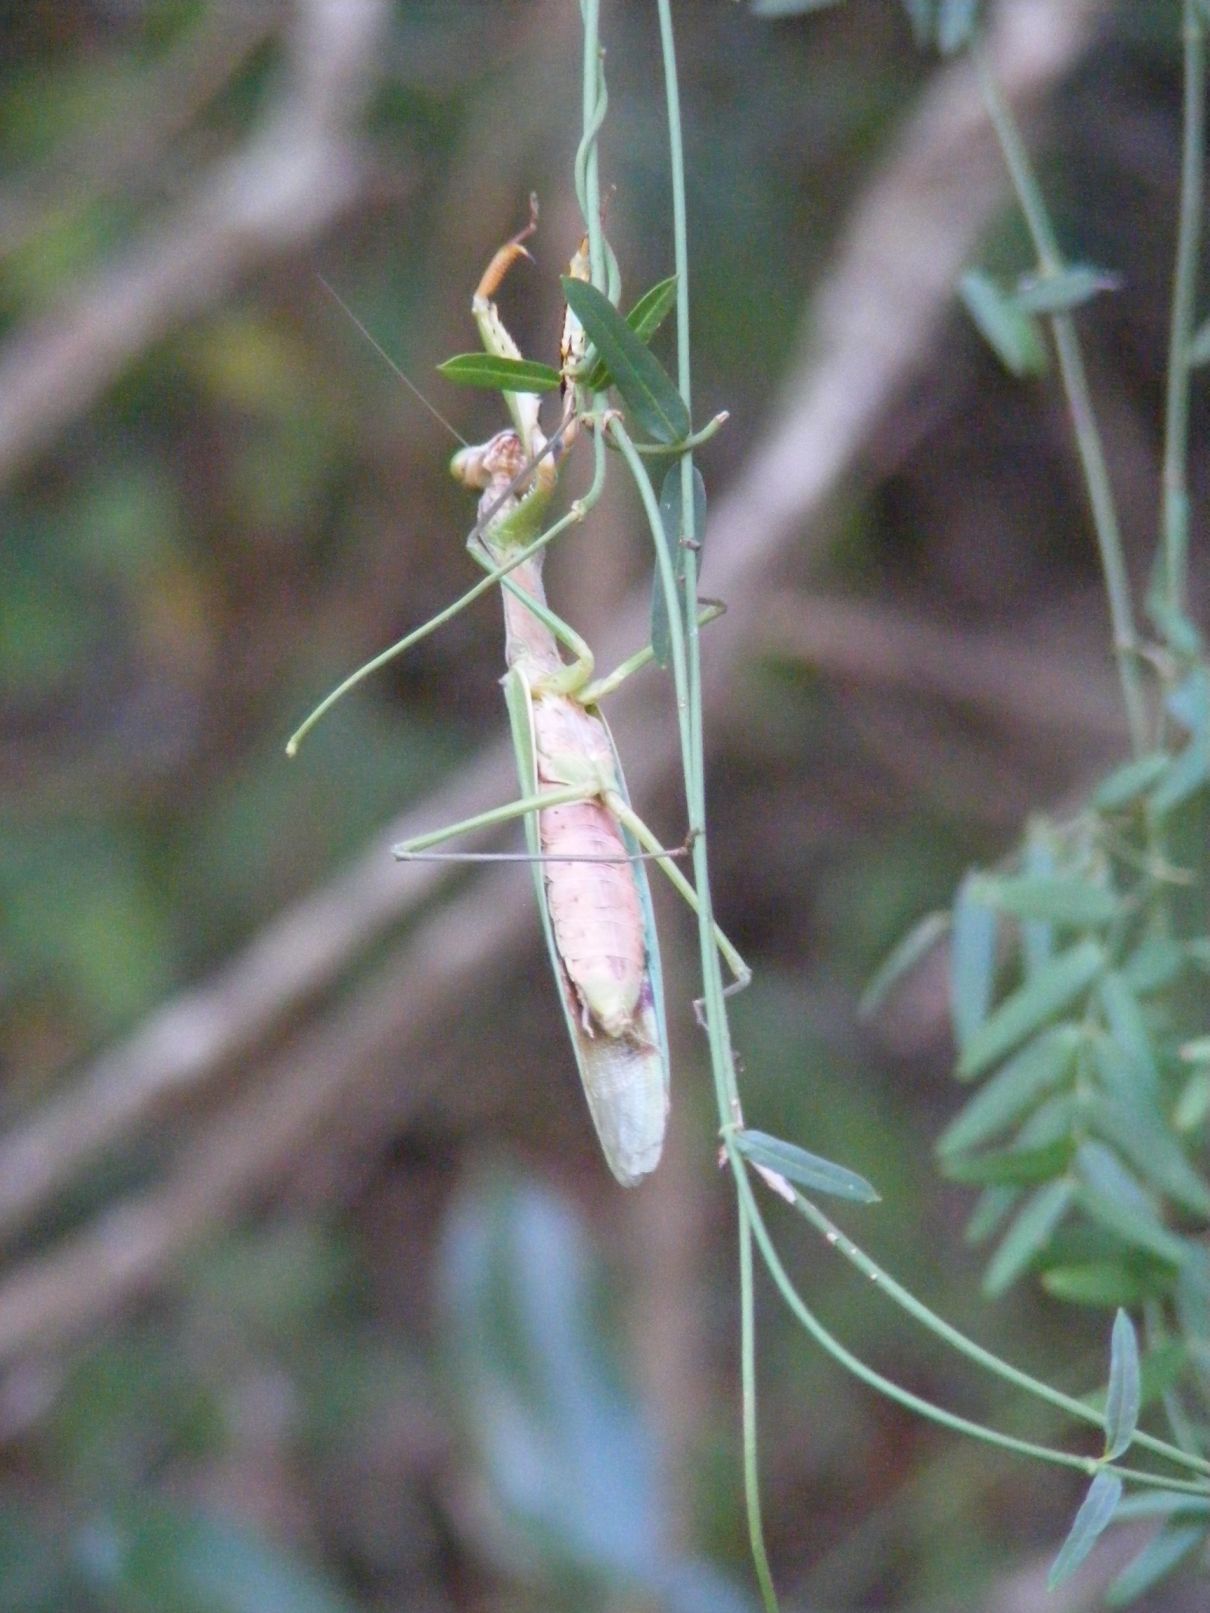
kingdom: Animalia
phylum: Arthropoda
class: Insecta
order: Mantodea
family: Mantidae
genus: Polyspilota
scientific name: Polyspilota aeruginosa
